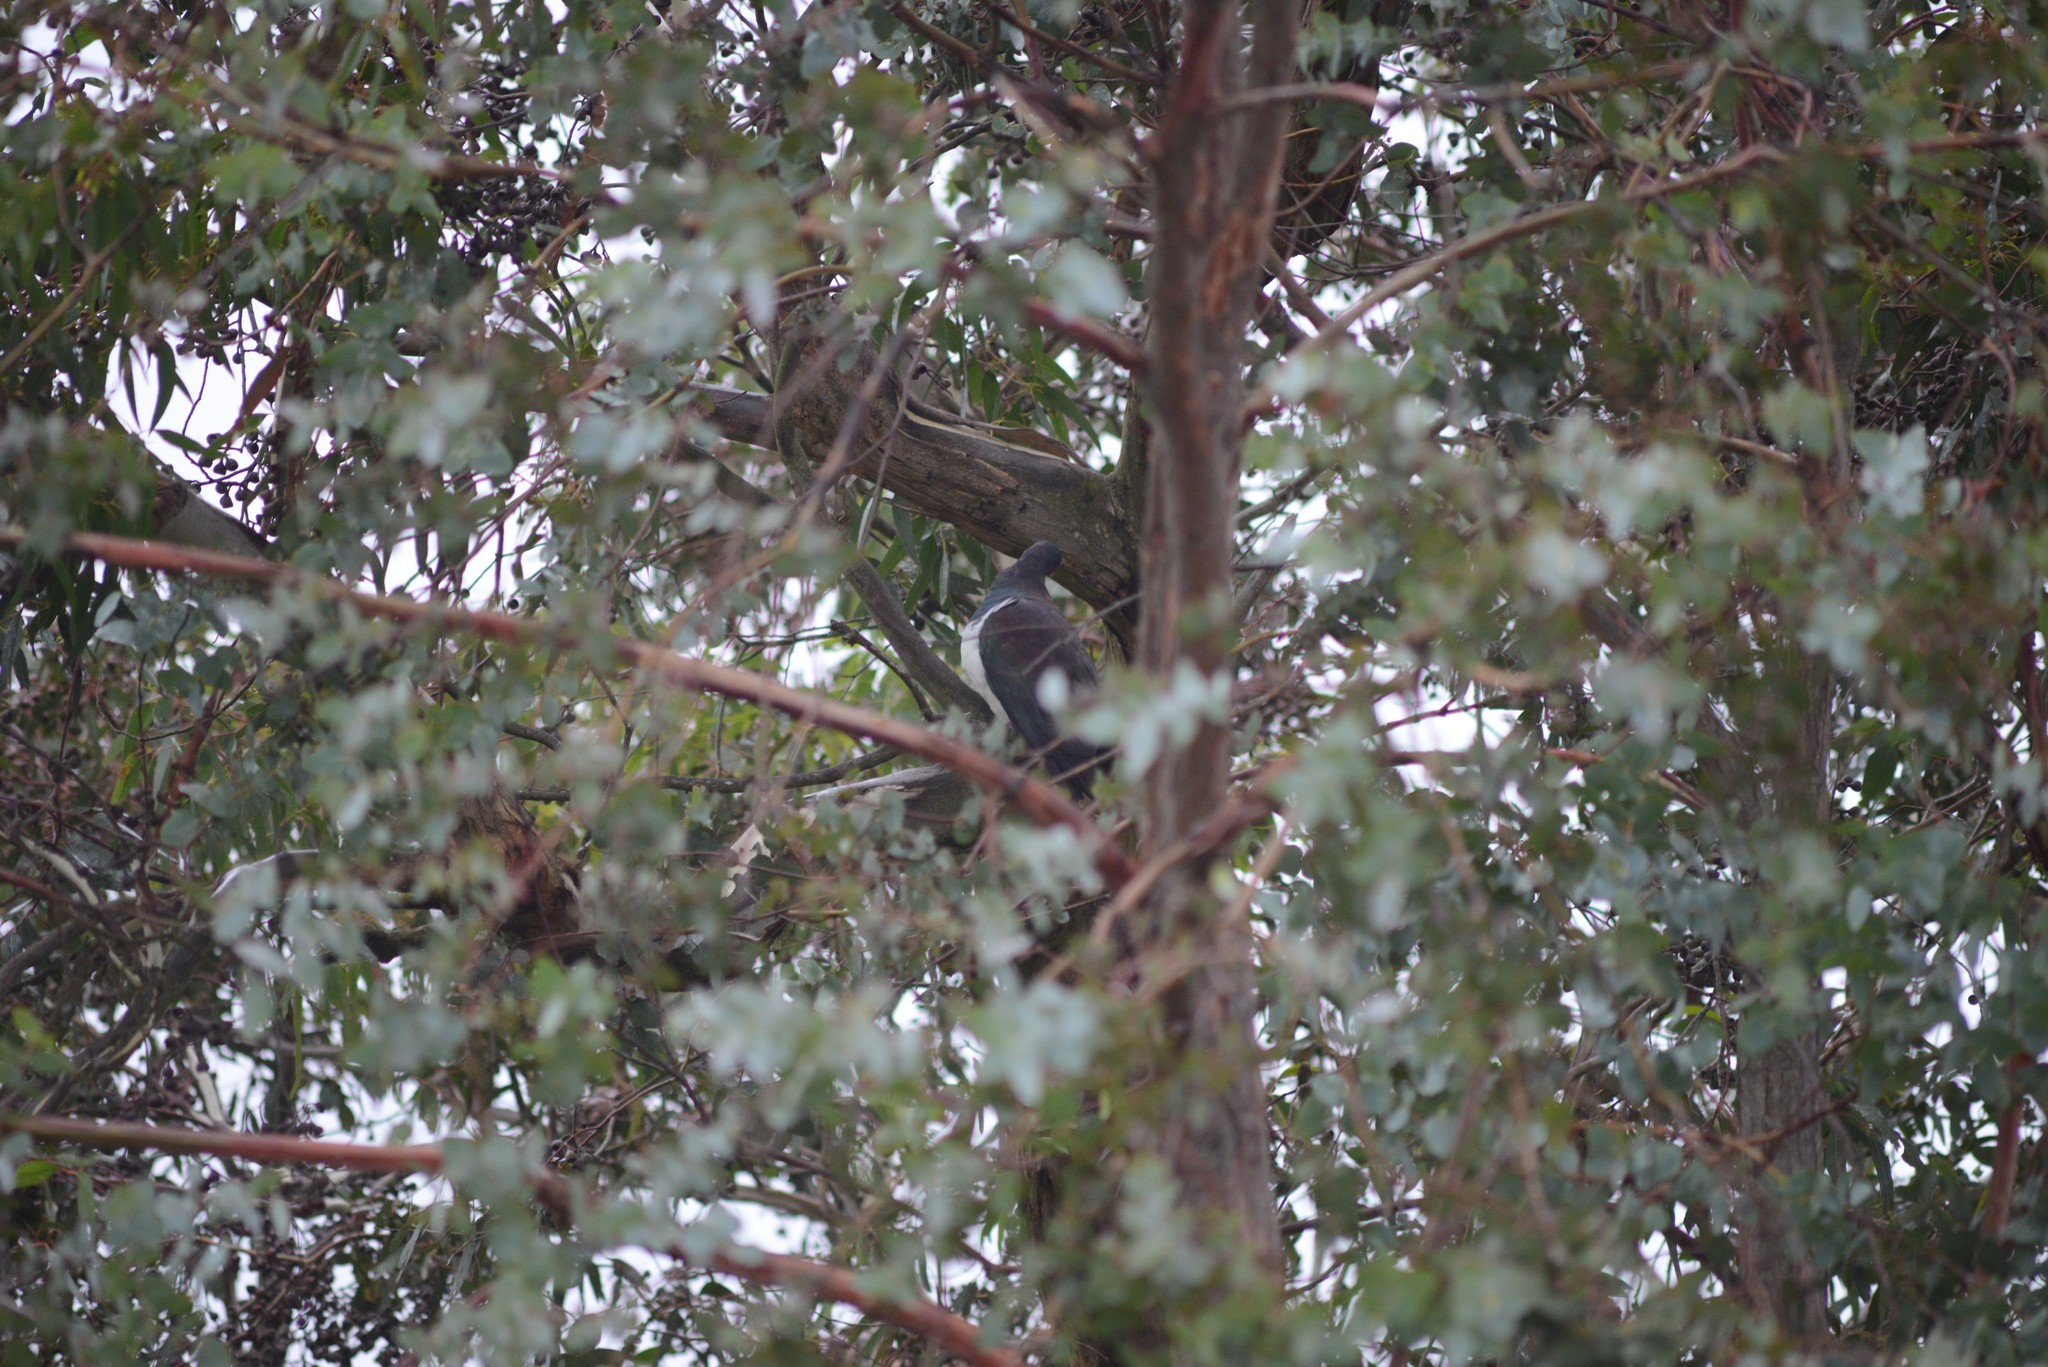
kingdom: Animalia
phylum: Chordata
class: Aves
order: Columbiformes
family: Columbidae
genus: Hemiphaga
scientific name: Hemiphaga novaeseelandiae
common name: New zealand pigeon
